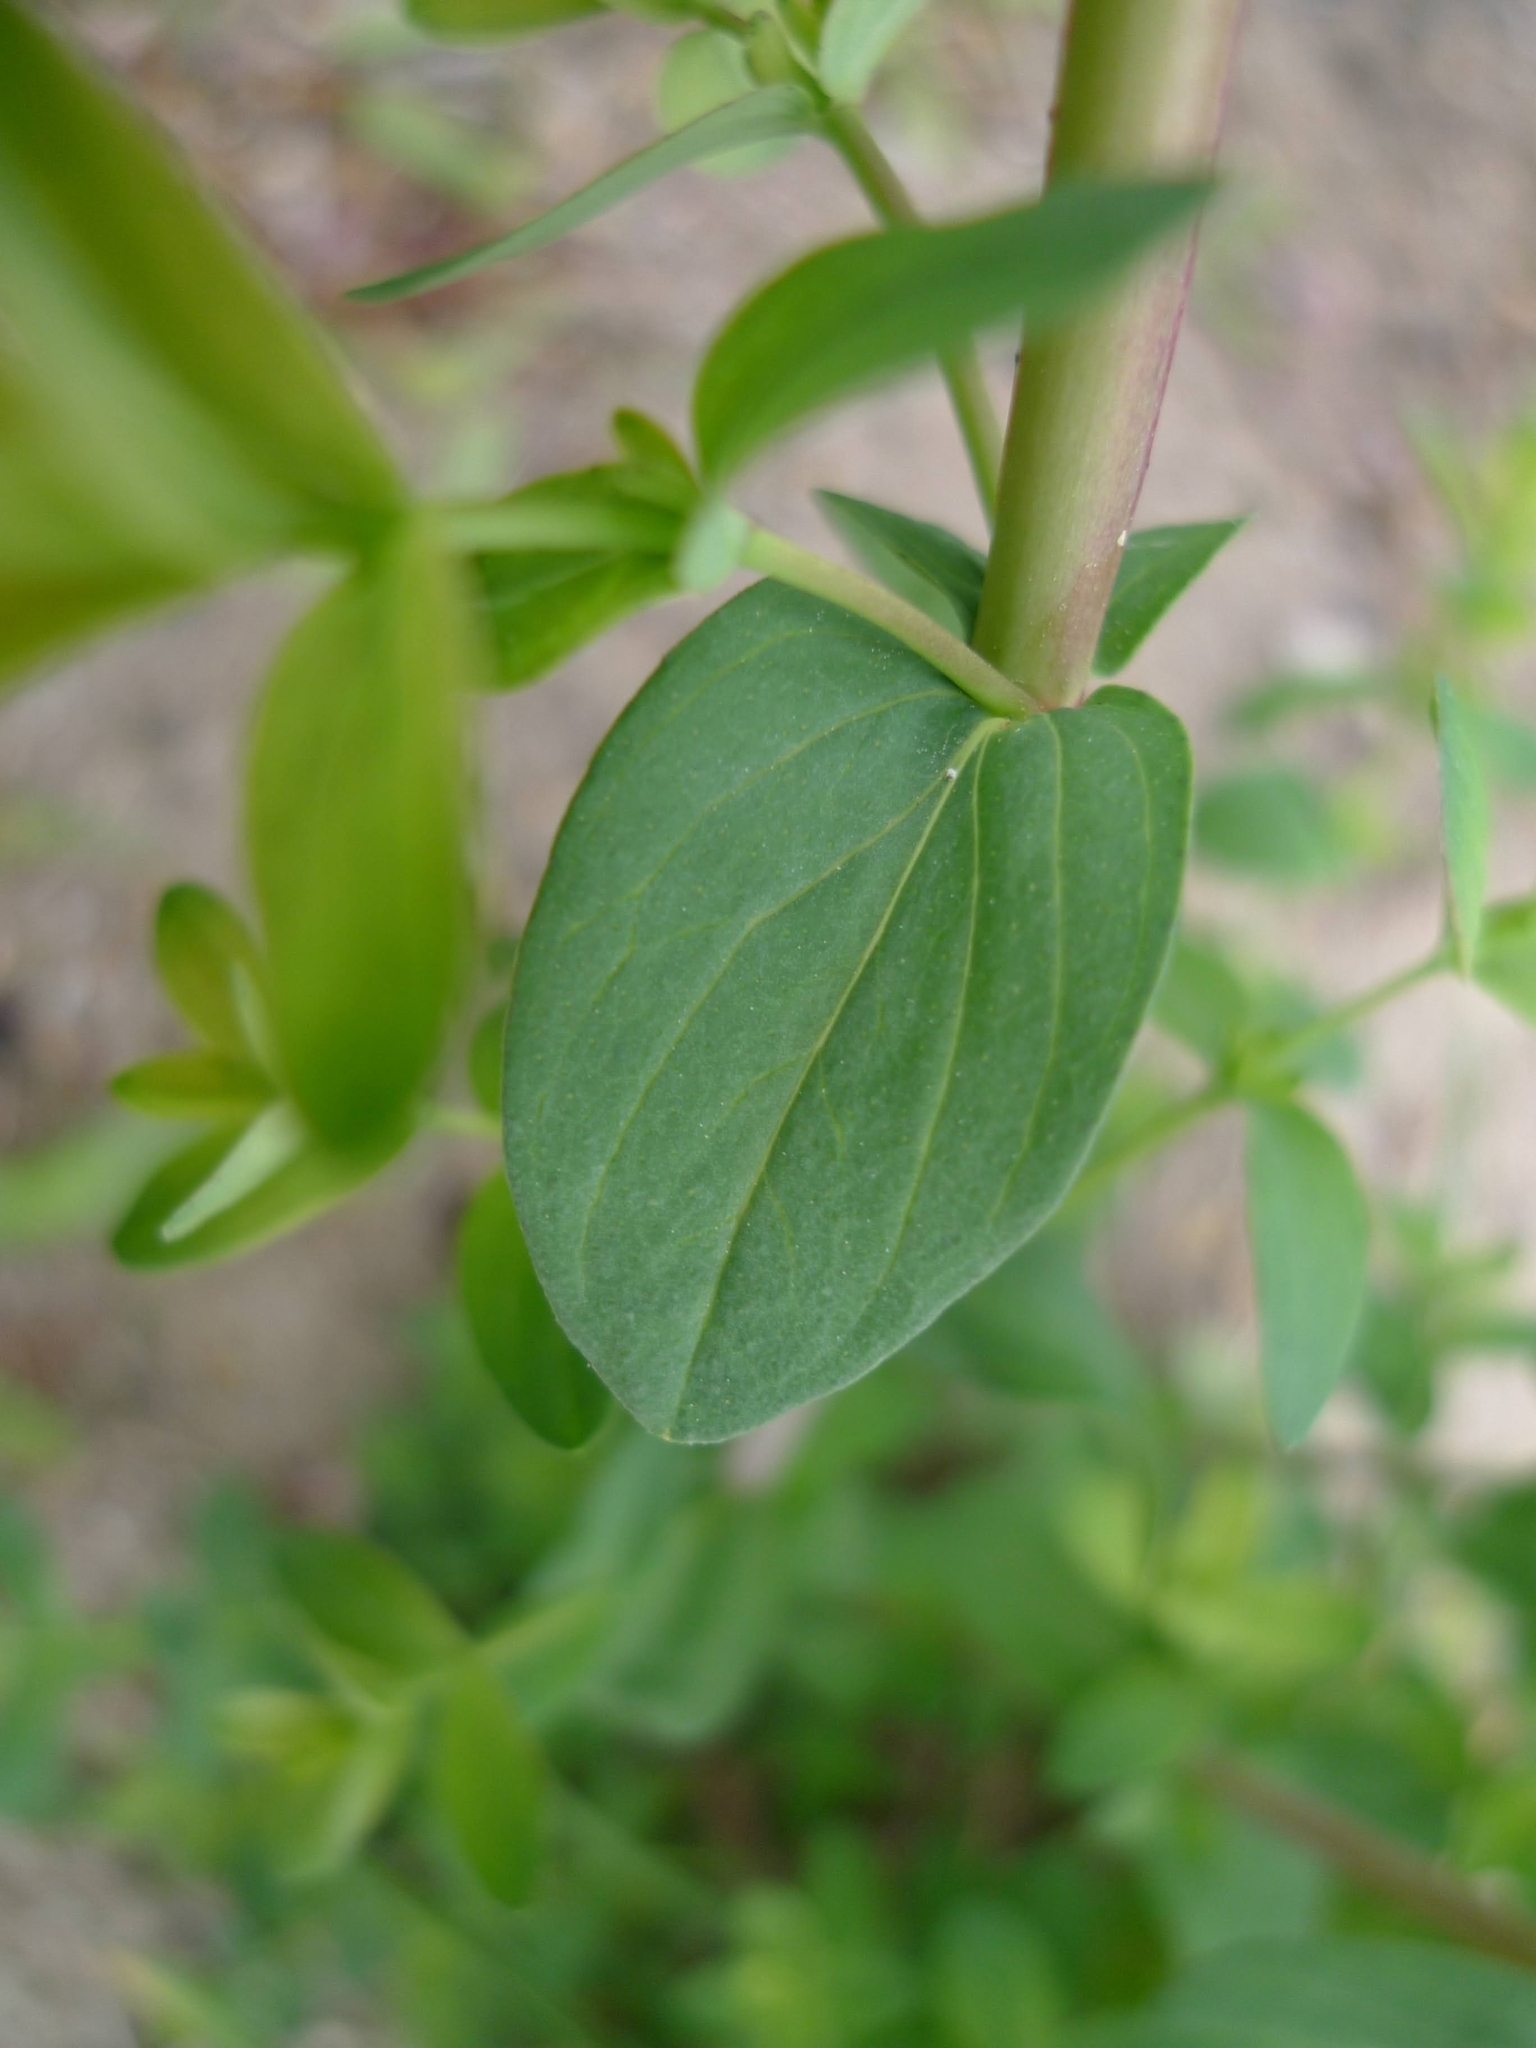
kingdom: Plantae
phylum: Tracheophyta
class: Magnoliopsida
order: Malpighiales
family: Hypericaceae
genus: Hypericum
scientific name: Hypericum perforatum
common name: Common st. johnswort
